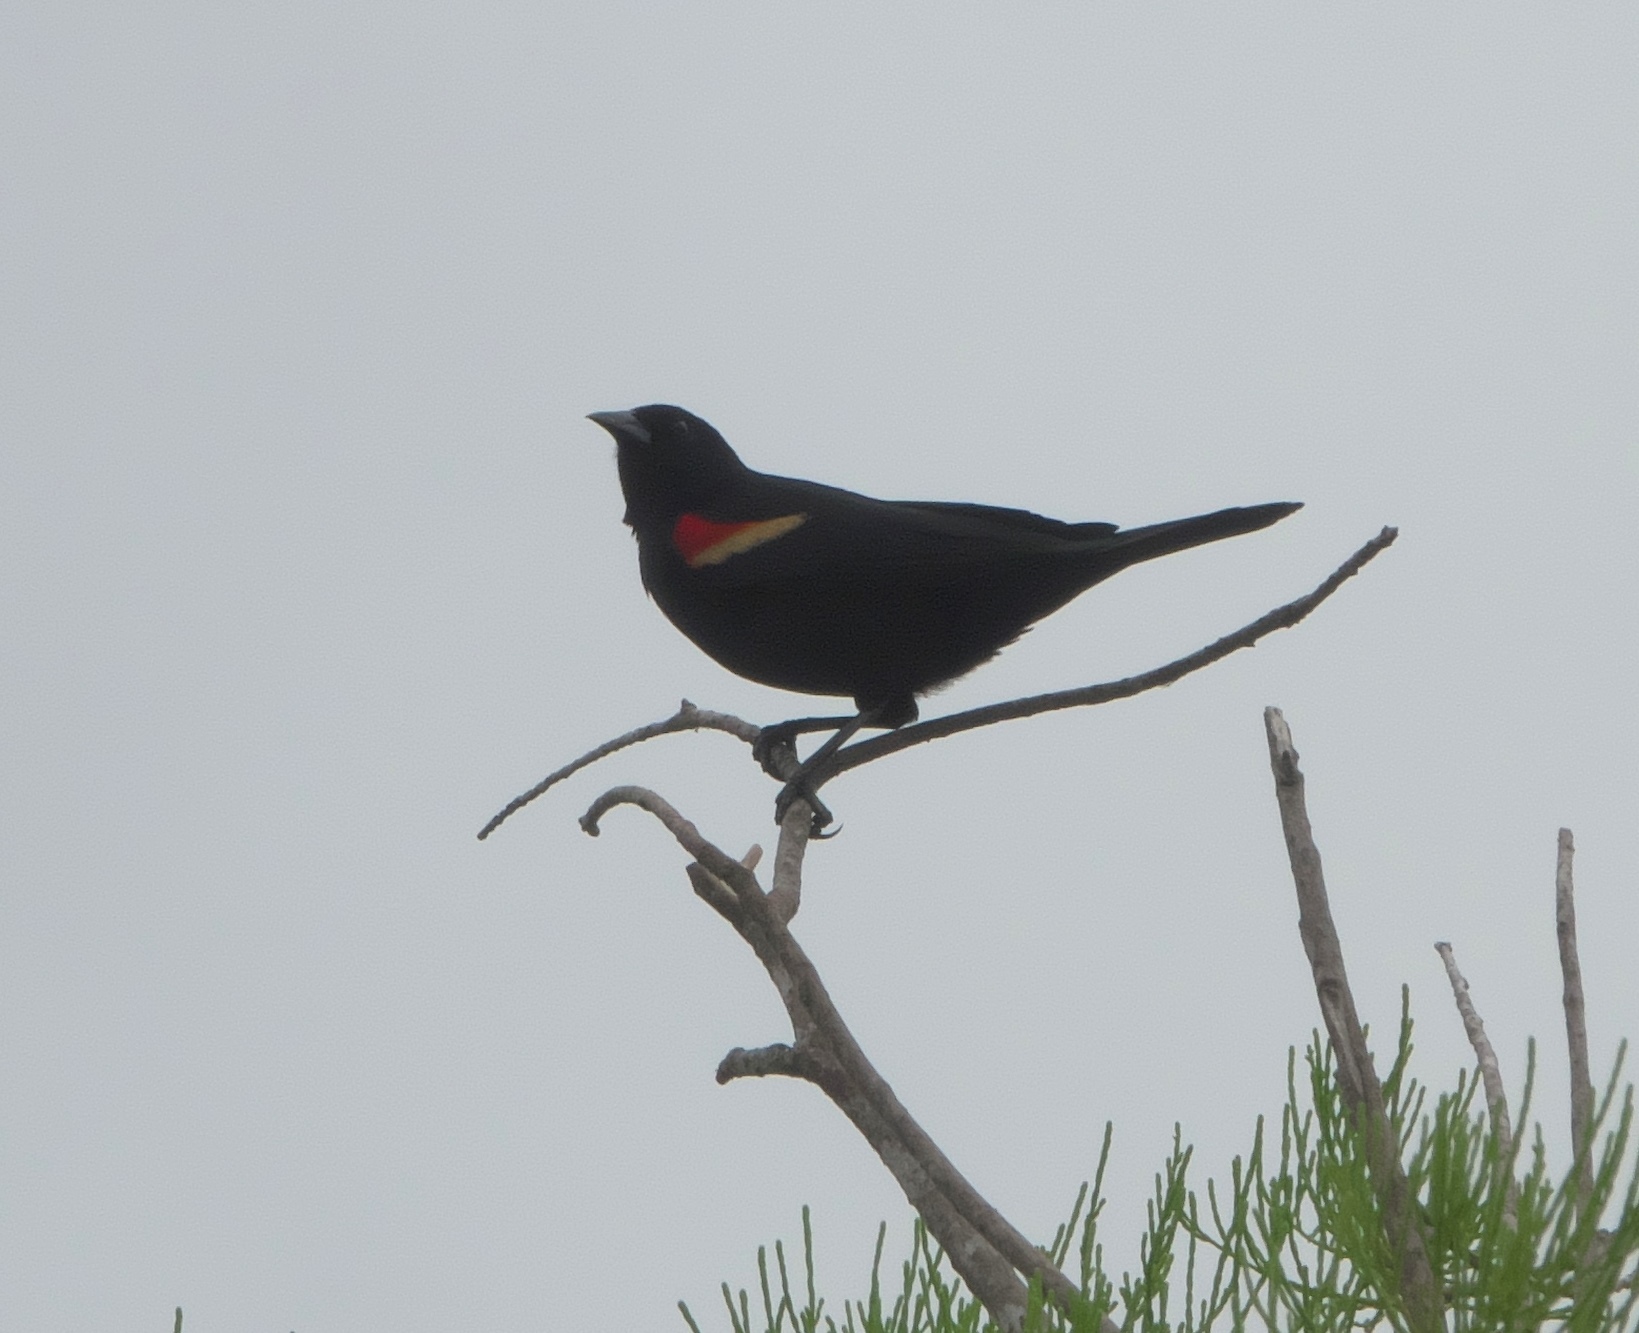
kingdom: Animalia
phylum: Chordata
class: Aves
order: Passeriformes
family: Icteridae
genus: Agelaius
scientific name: Agelaius phoeniceus
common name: Red-winged blackbird
